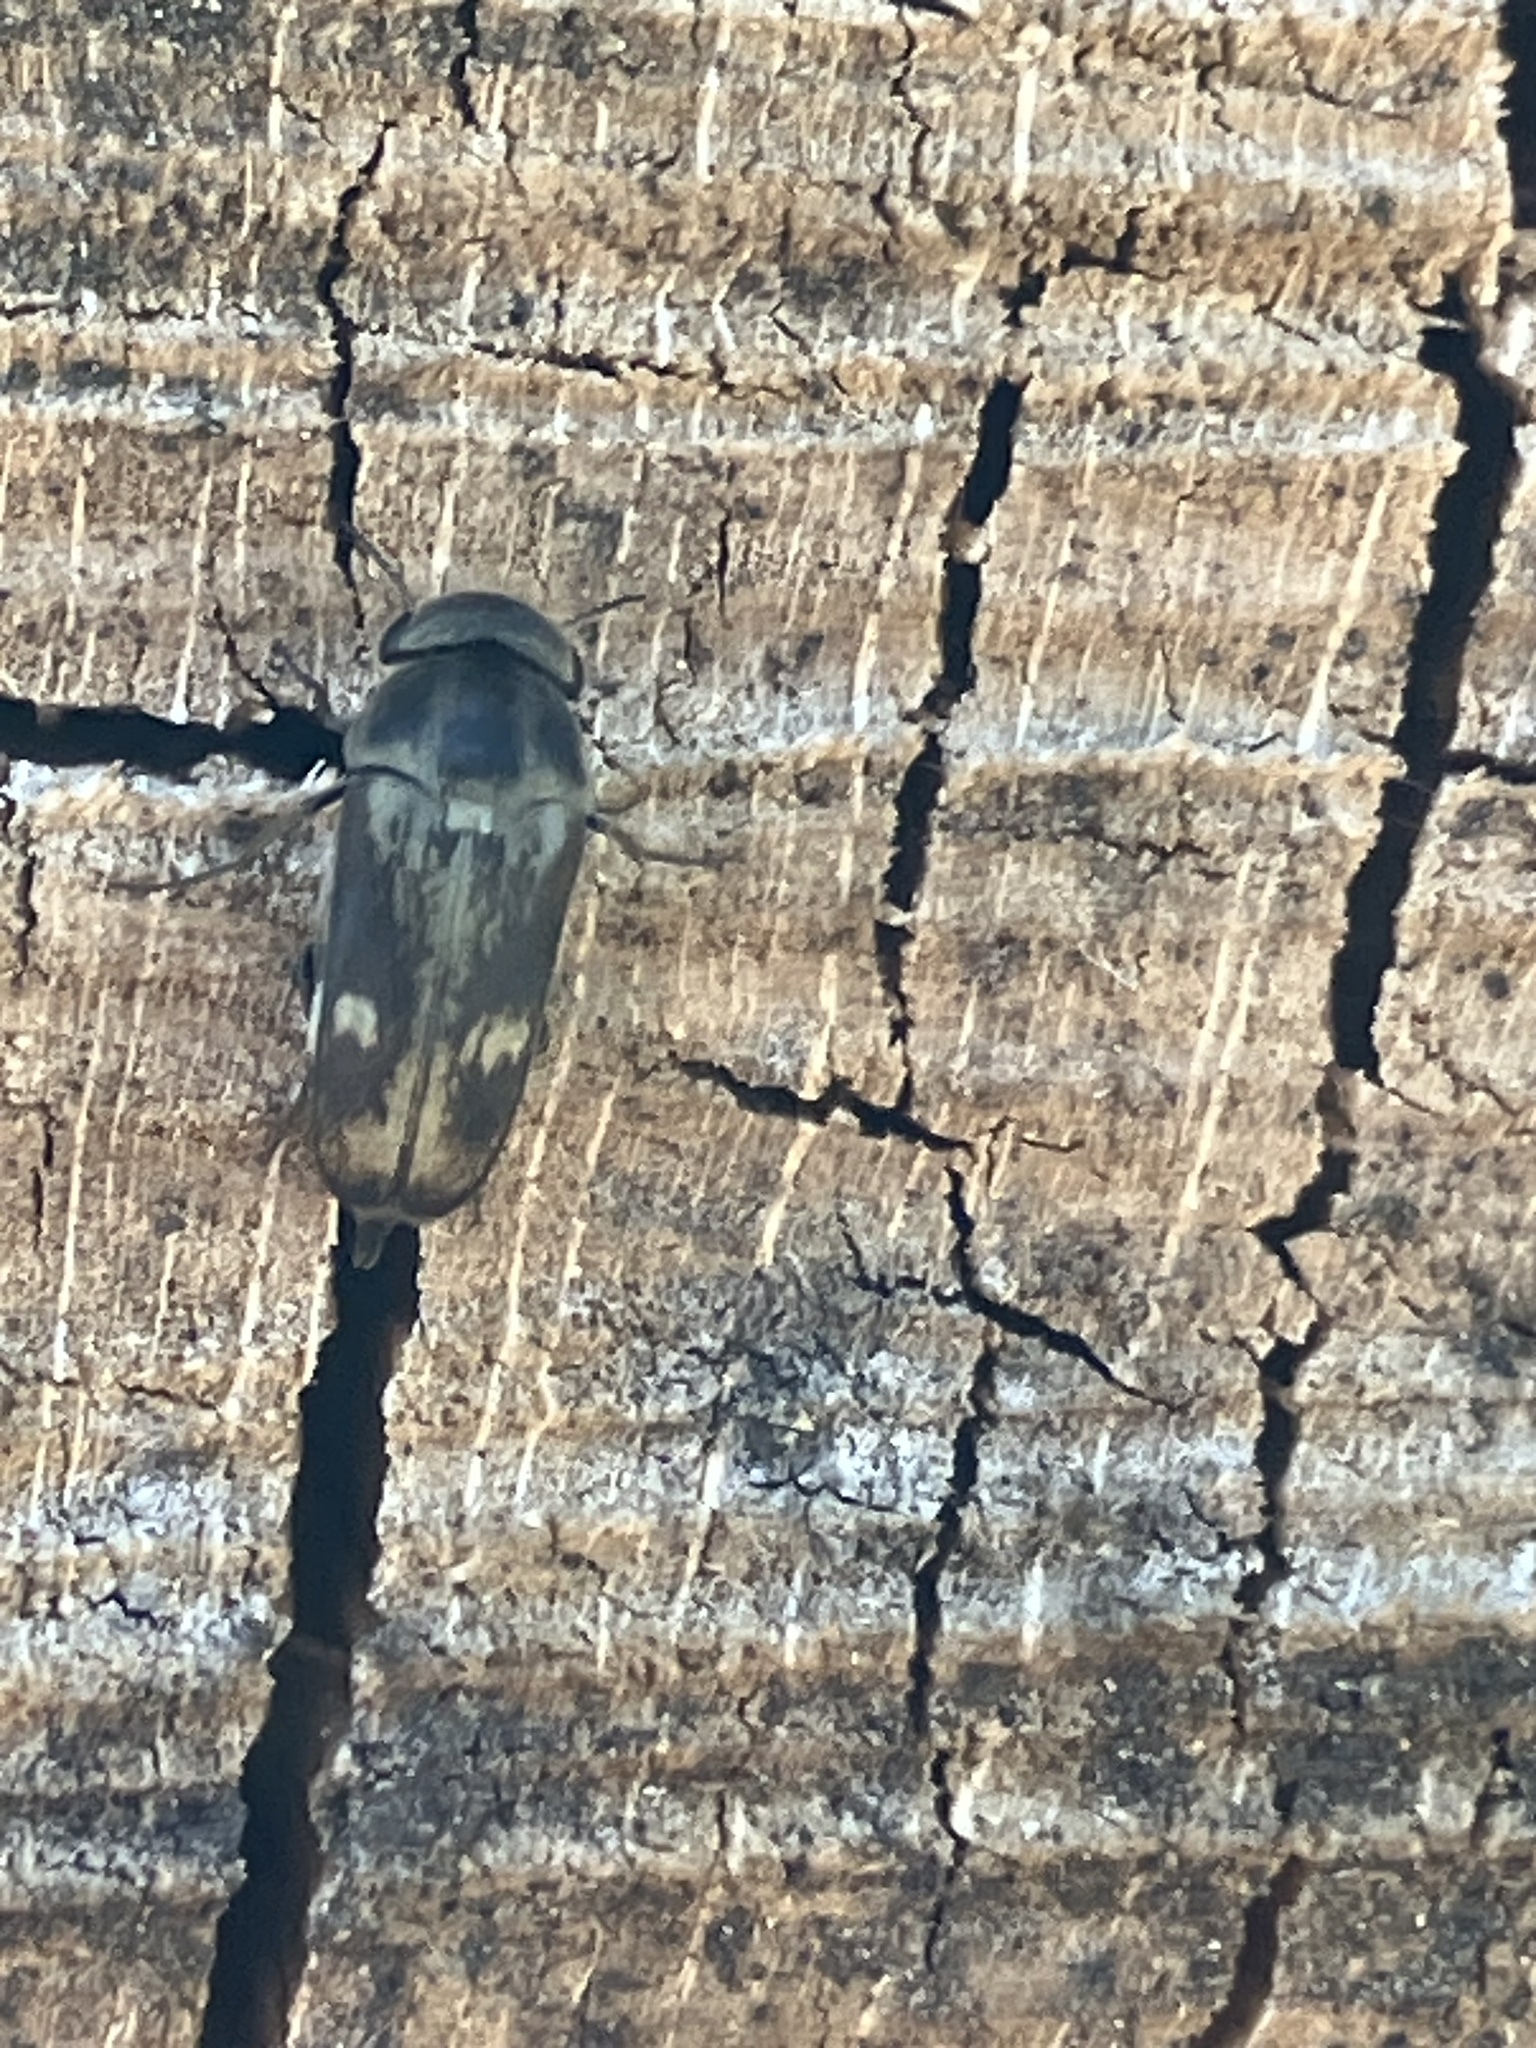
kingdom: Animalia
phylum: Arthropoda
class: Insecta
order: Coleoptera
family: Mordellidae
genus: Tomoxia
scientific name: Tomoxia bucephala
